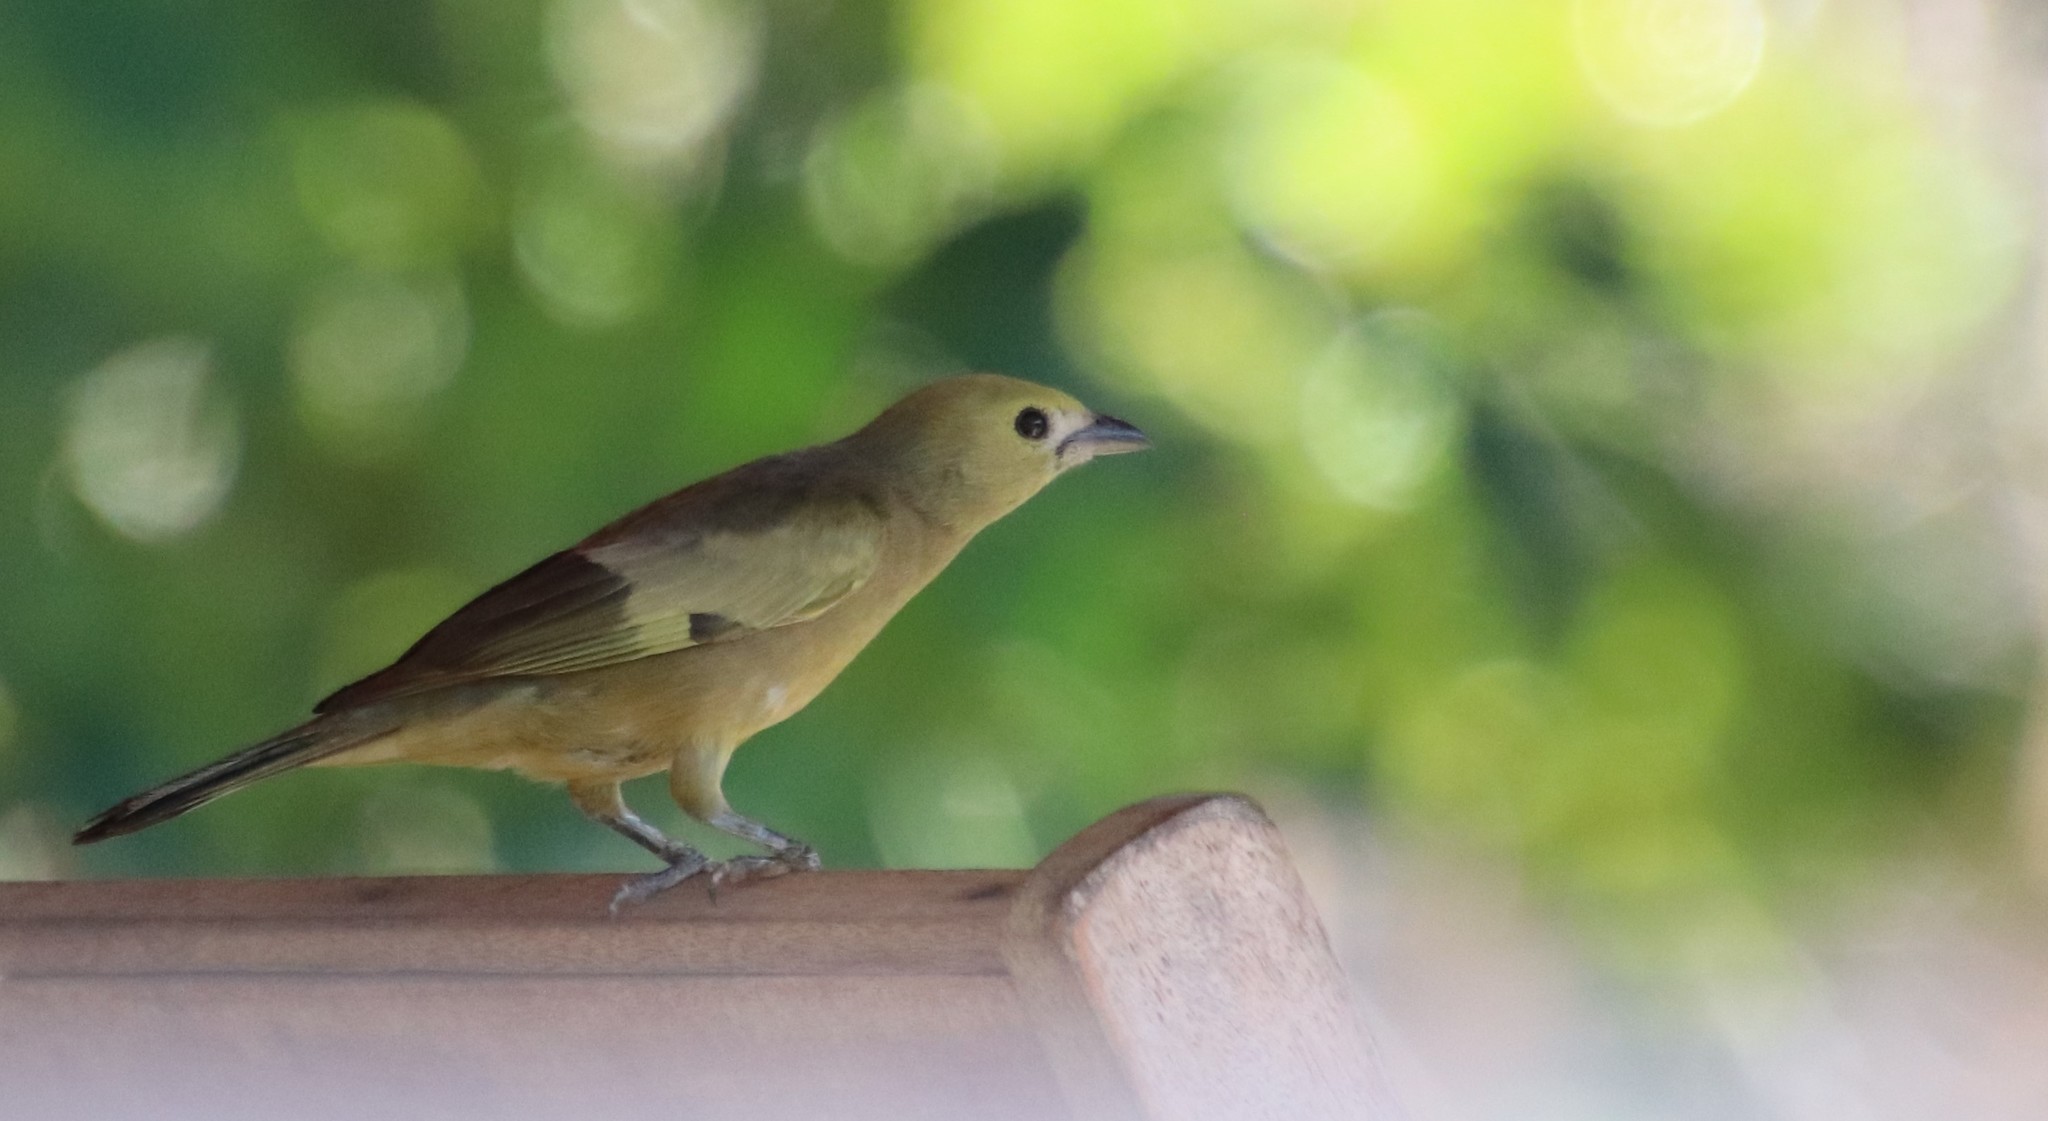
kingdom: Animalia
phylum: Chordata
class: Aves
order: Passeriformes
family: Thraupidae
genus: Thraupis
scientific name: Thraupis palmarum
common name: Palm tanager
